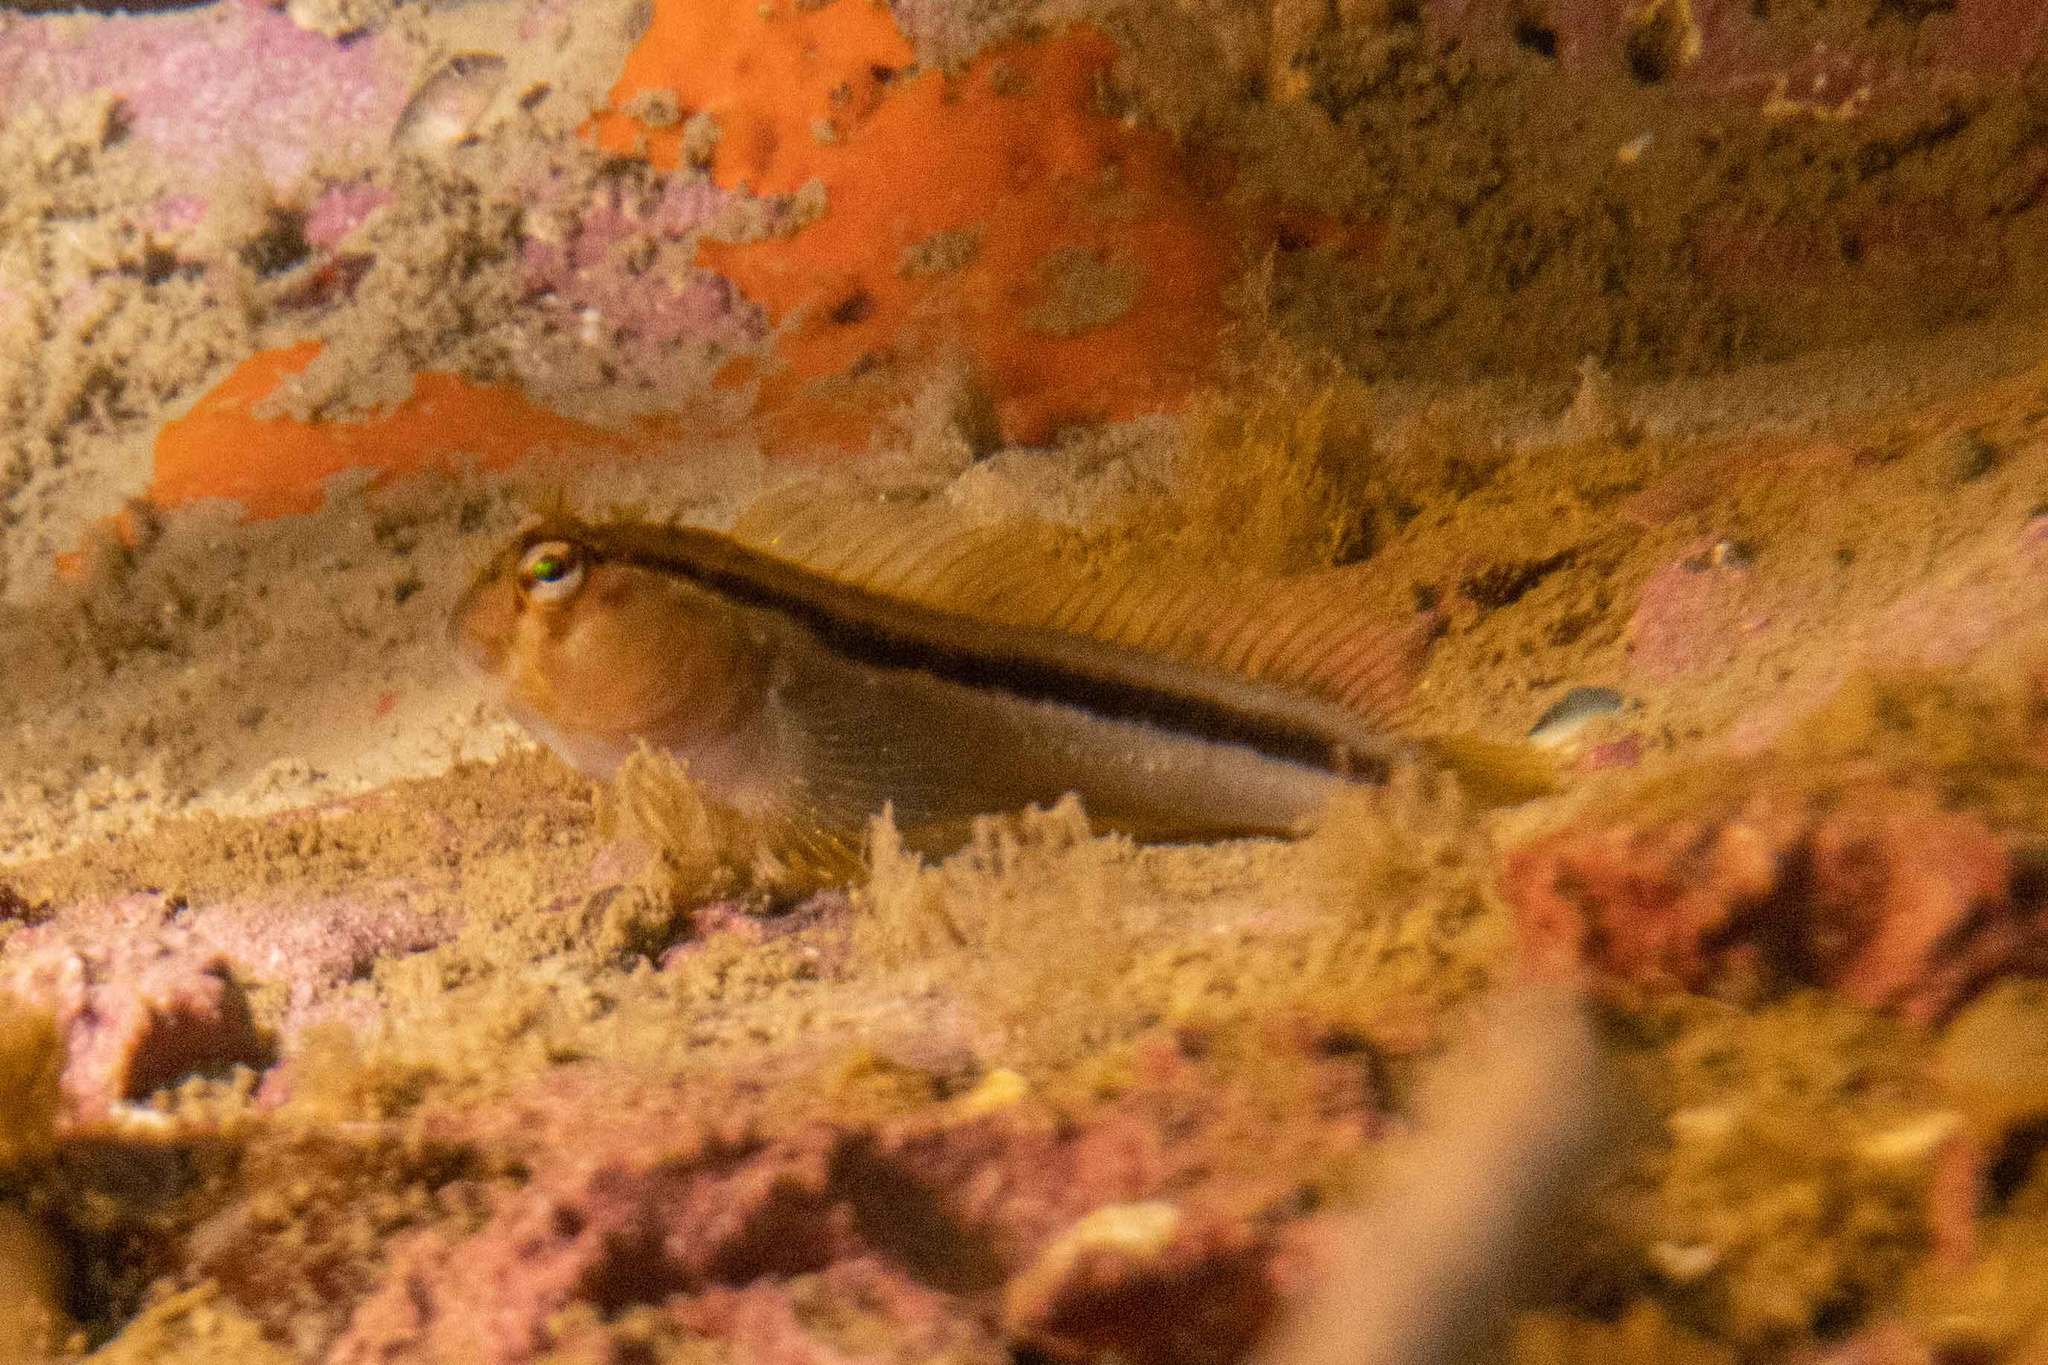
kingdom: Animalia
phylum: Chordata
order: Perciformes
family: Blenniidae
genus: Parablennius
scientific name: Parablennius laticlavius
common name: Crested blenny
